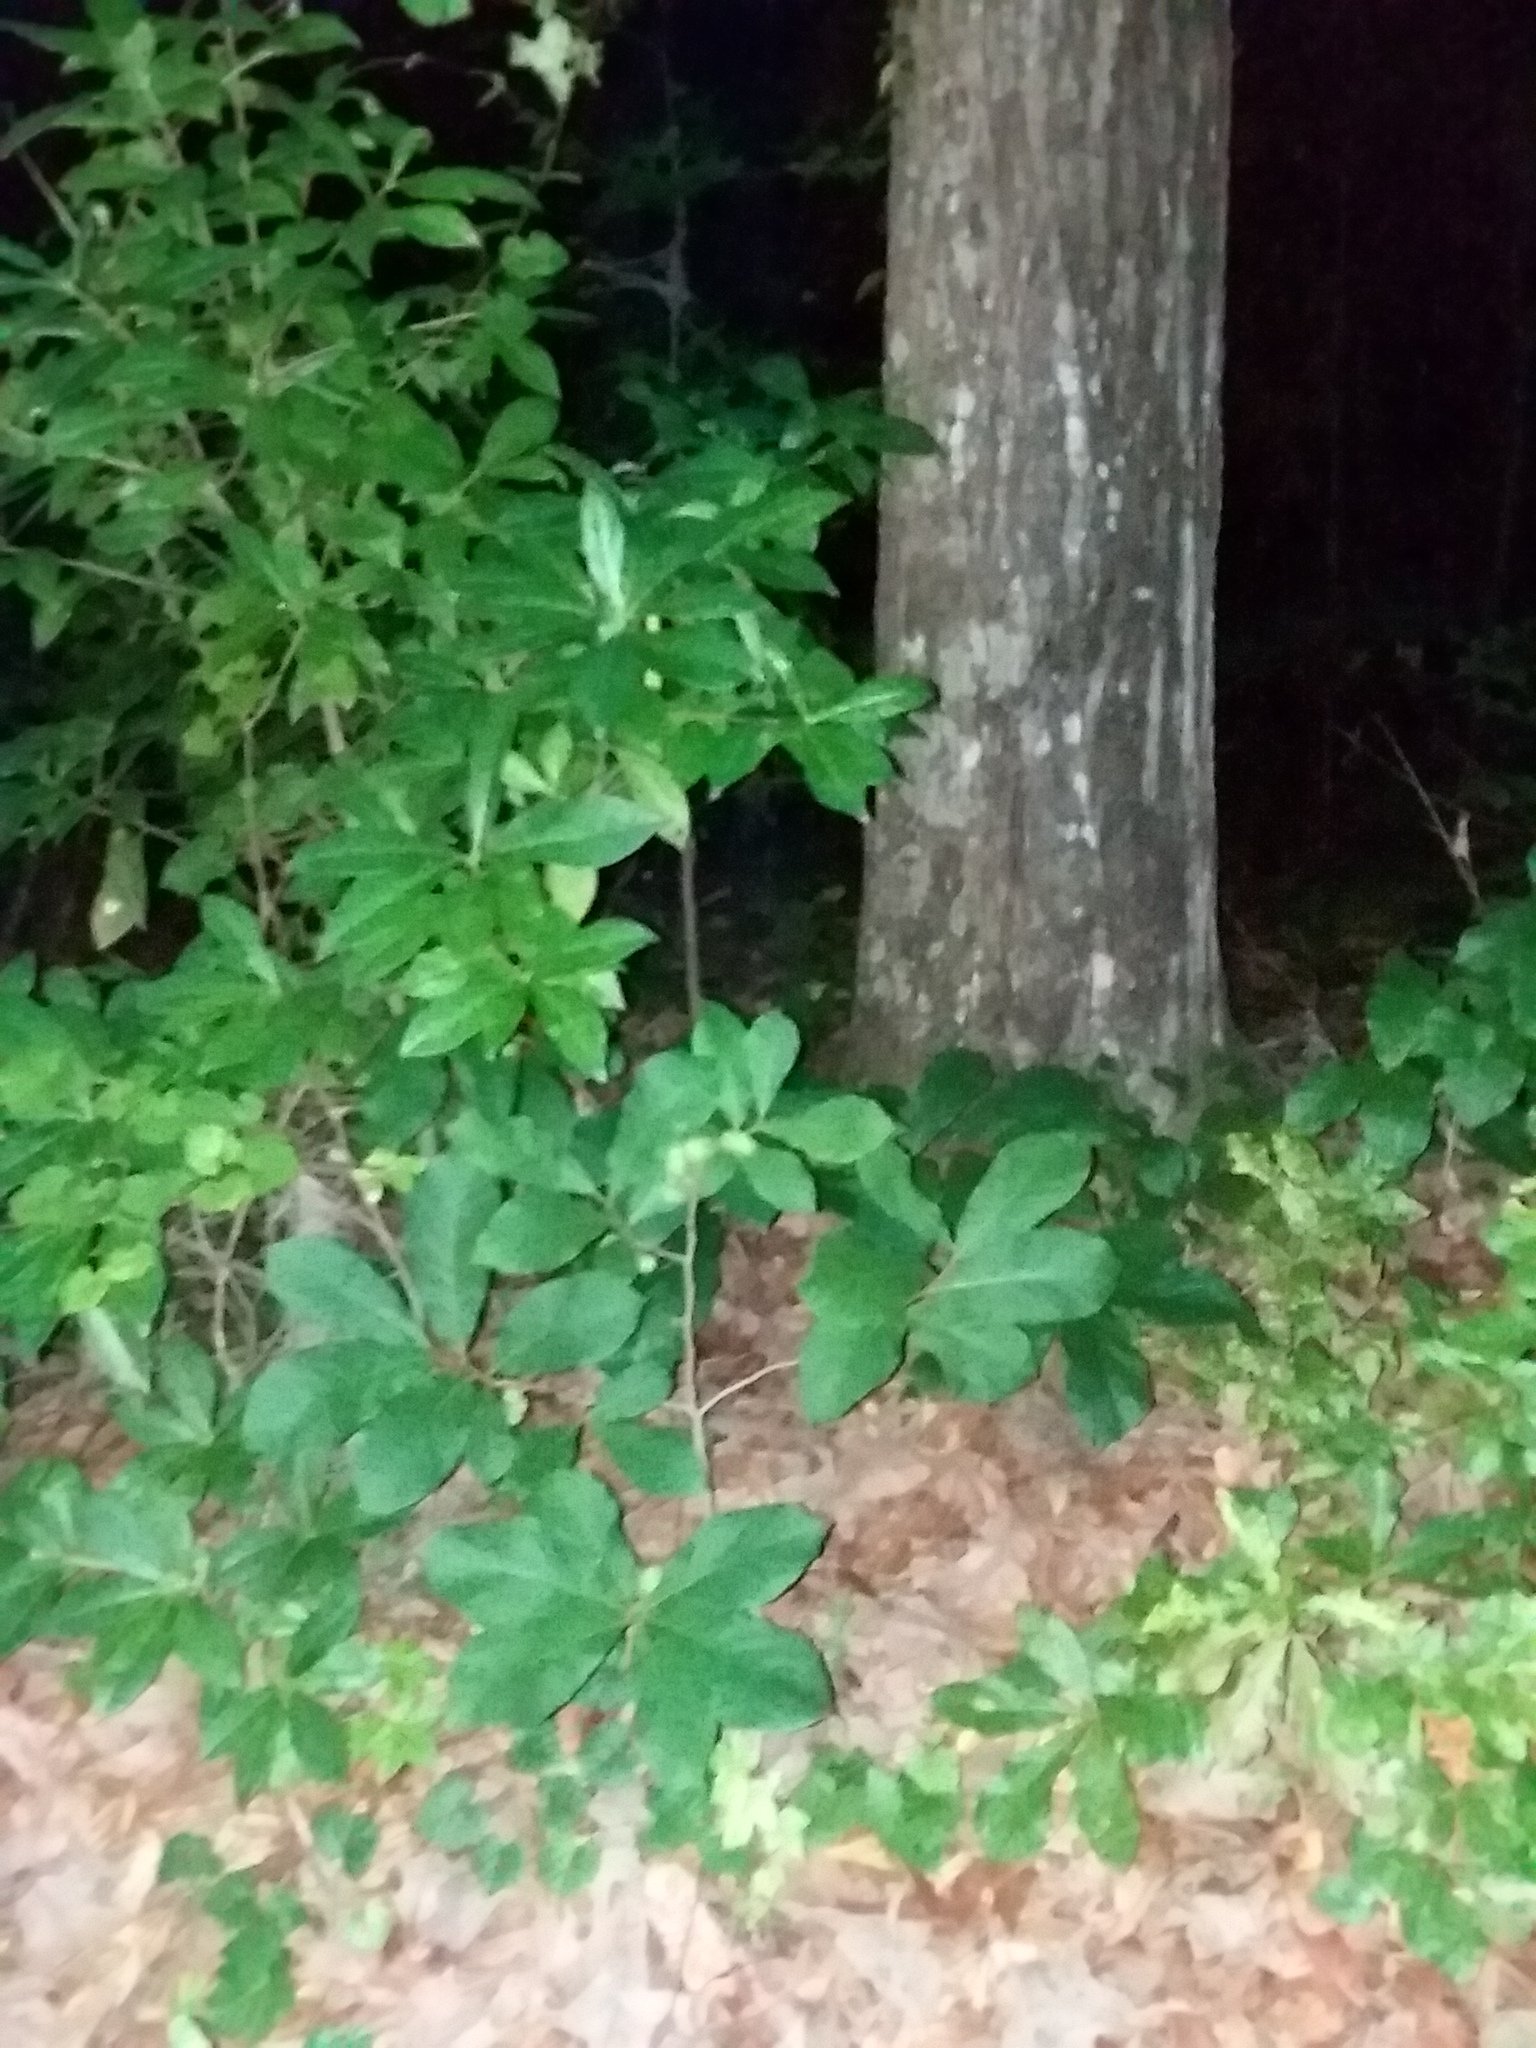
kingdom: Plantae
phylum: Tracheophyta
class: Magnoliopsida
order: Magnoliales
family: Annonaceae
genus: Asimina
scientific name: Asimina parviflora
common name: Dwarf pawpaw
